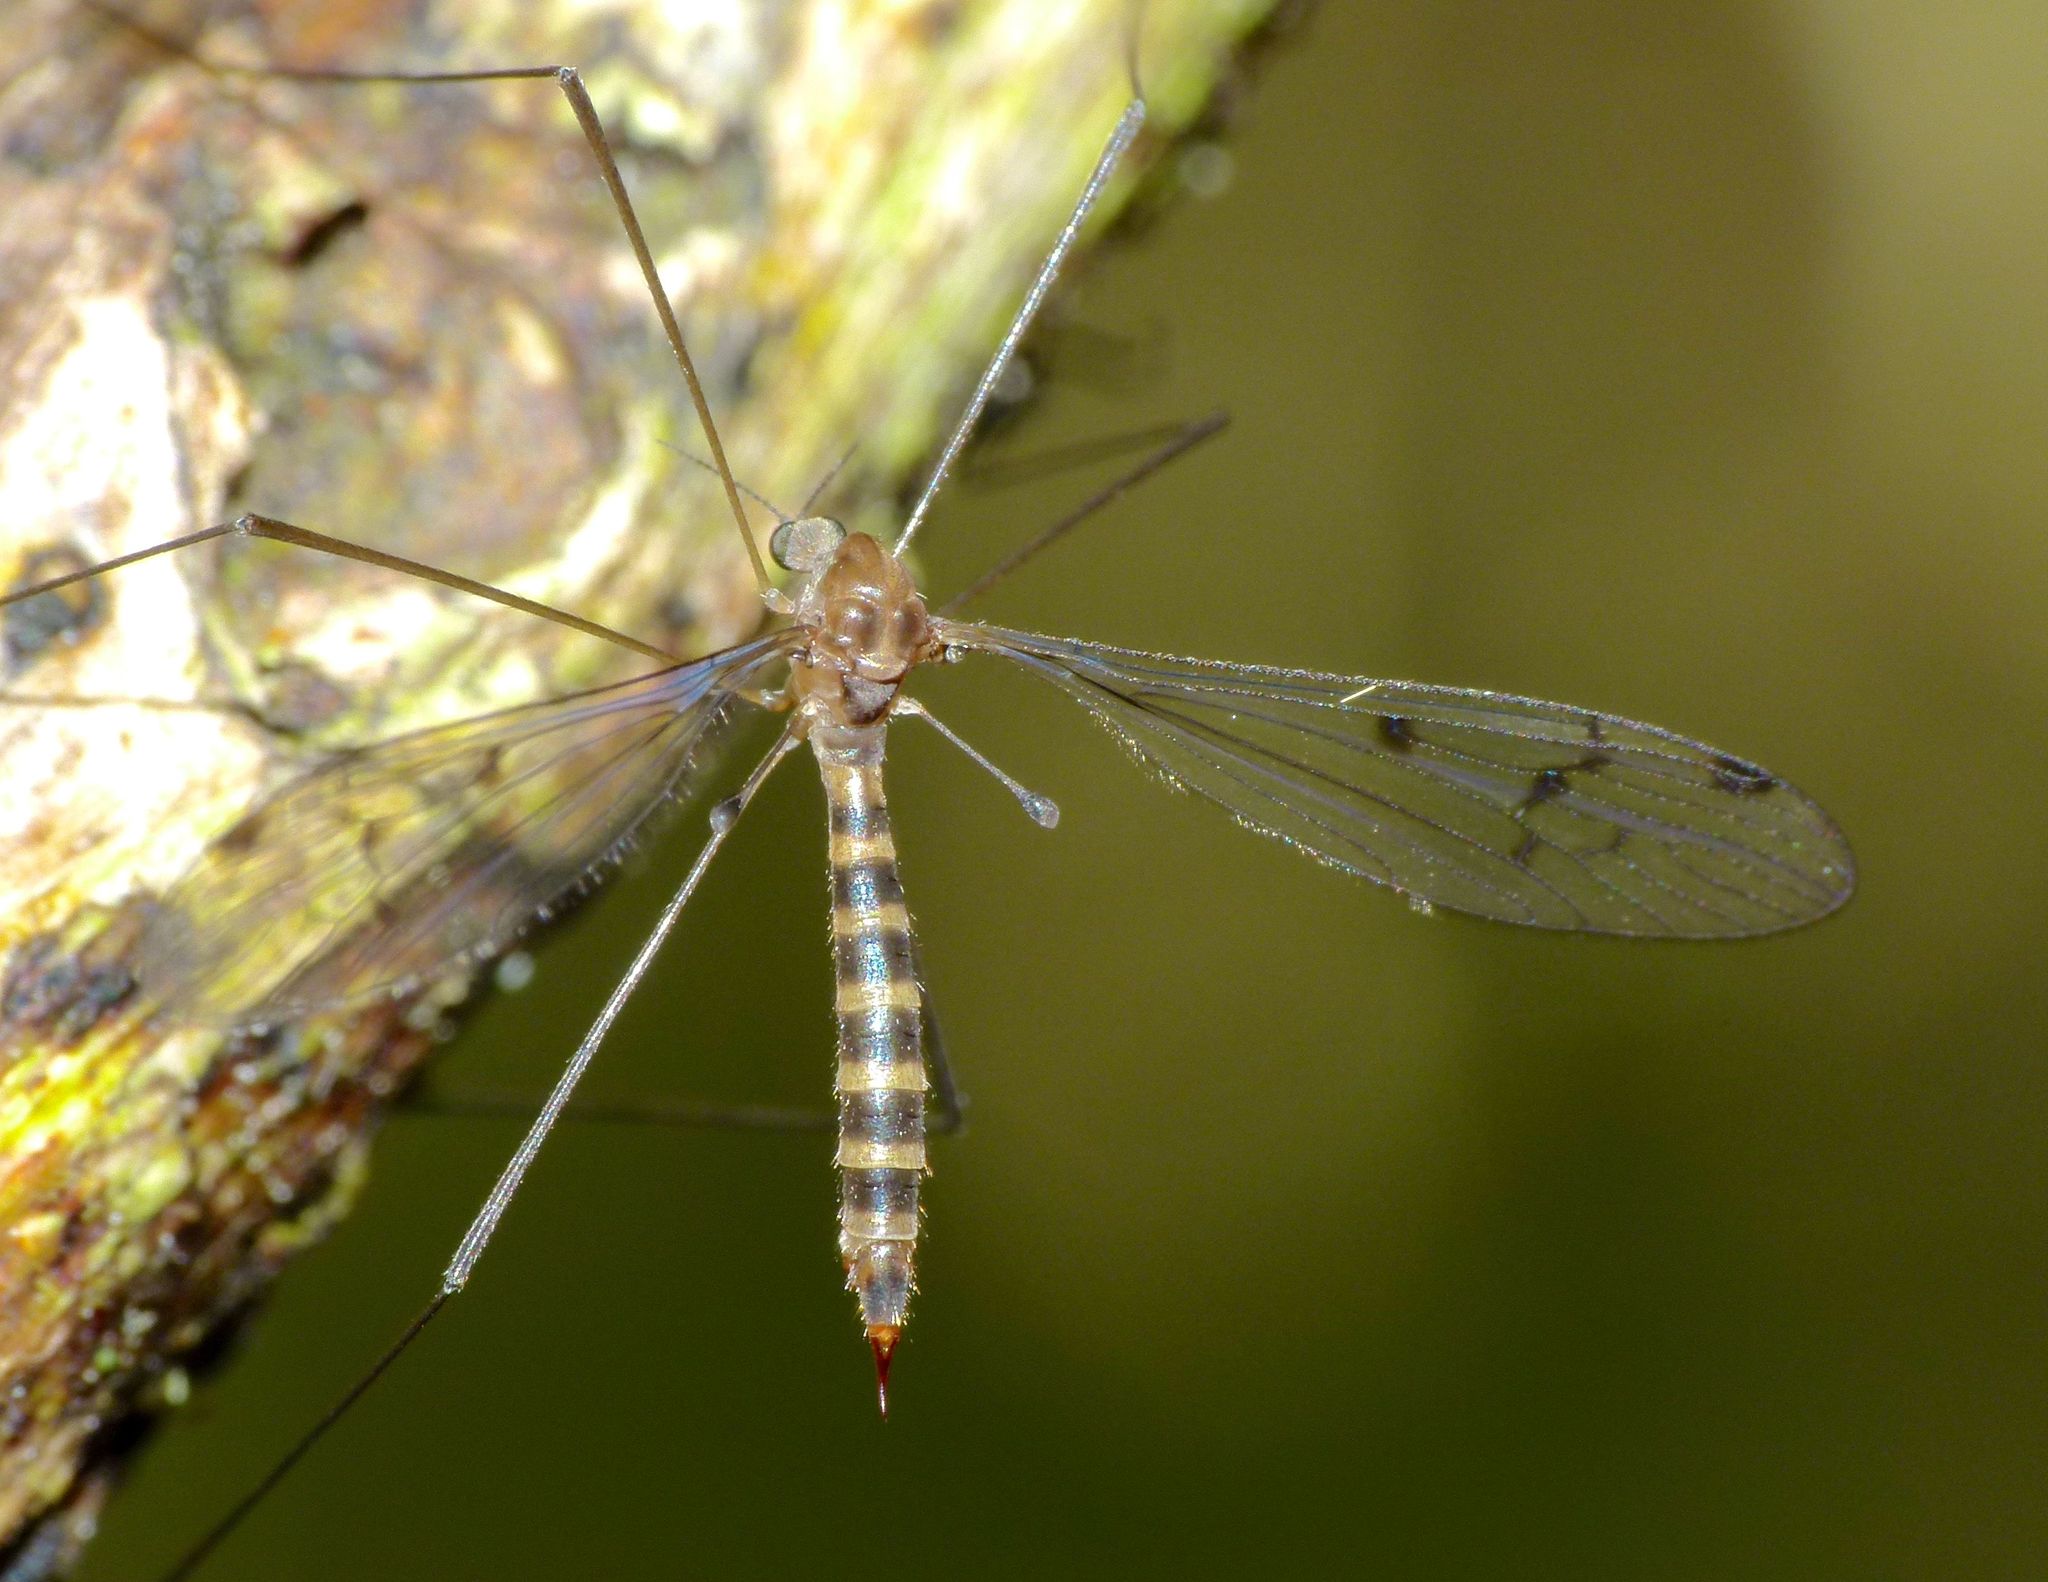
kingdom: Animalia
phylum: Arthropoda
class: Insecta
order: Diptera
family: Limoniidae
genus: Heterolimnophila
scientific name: Heterolimnophila truncata
